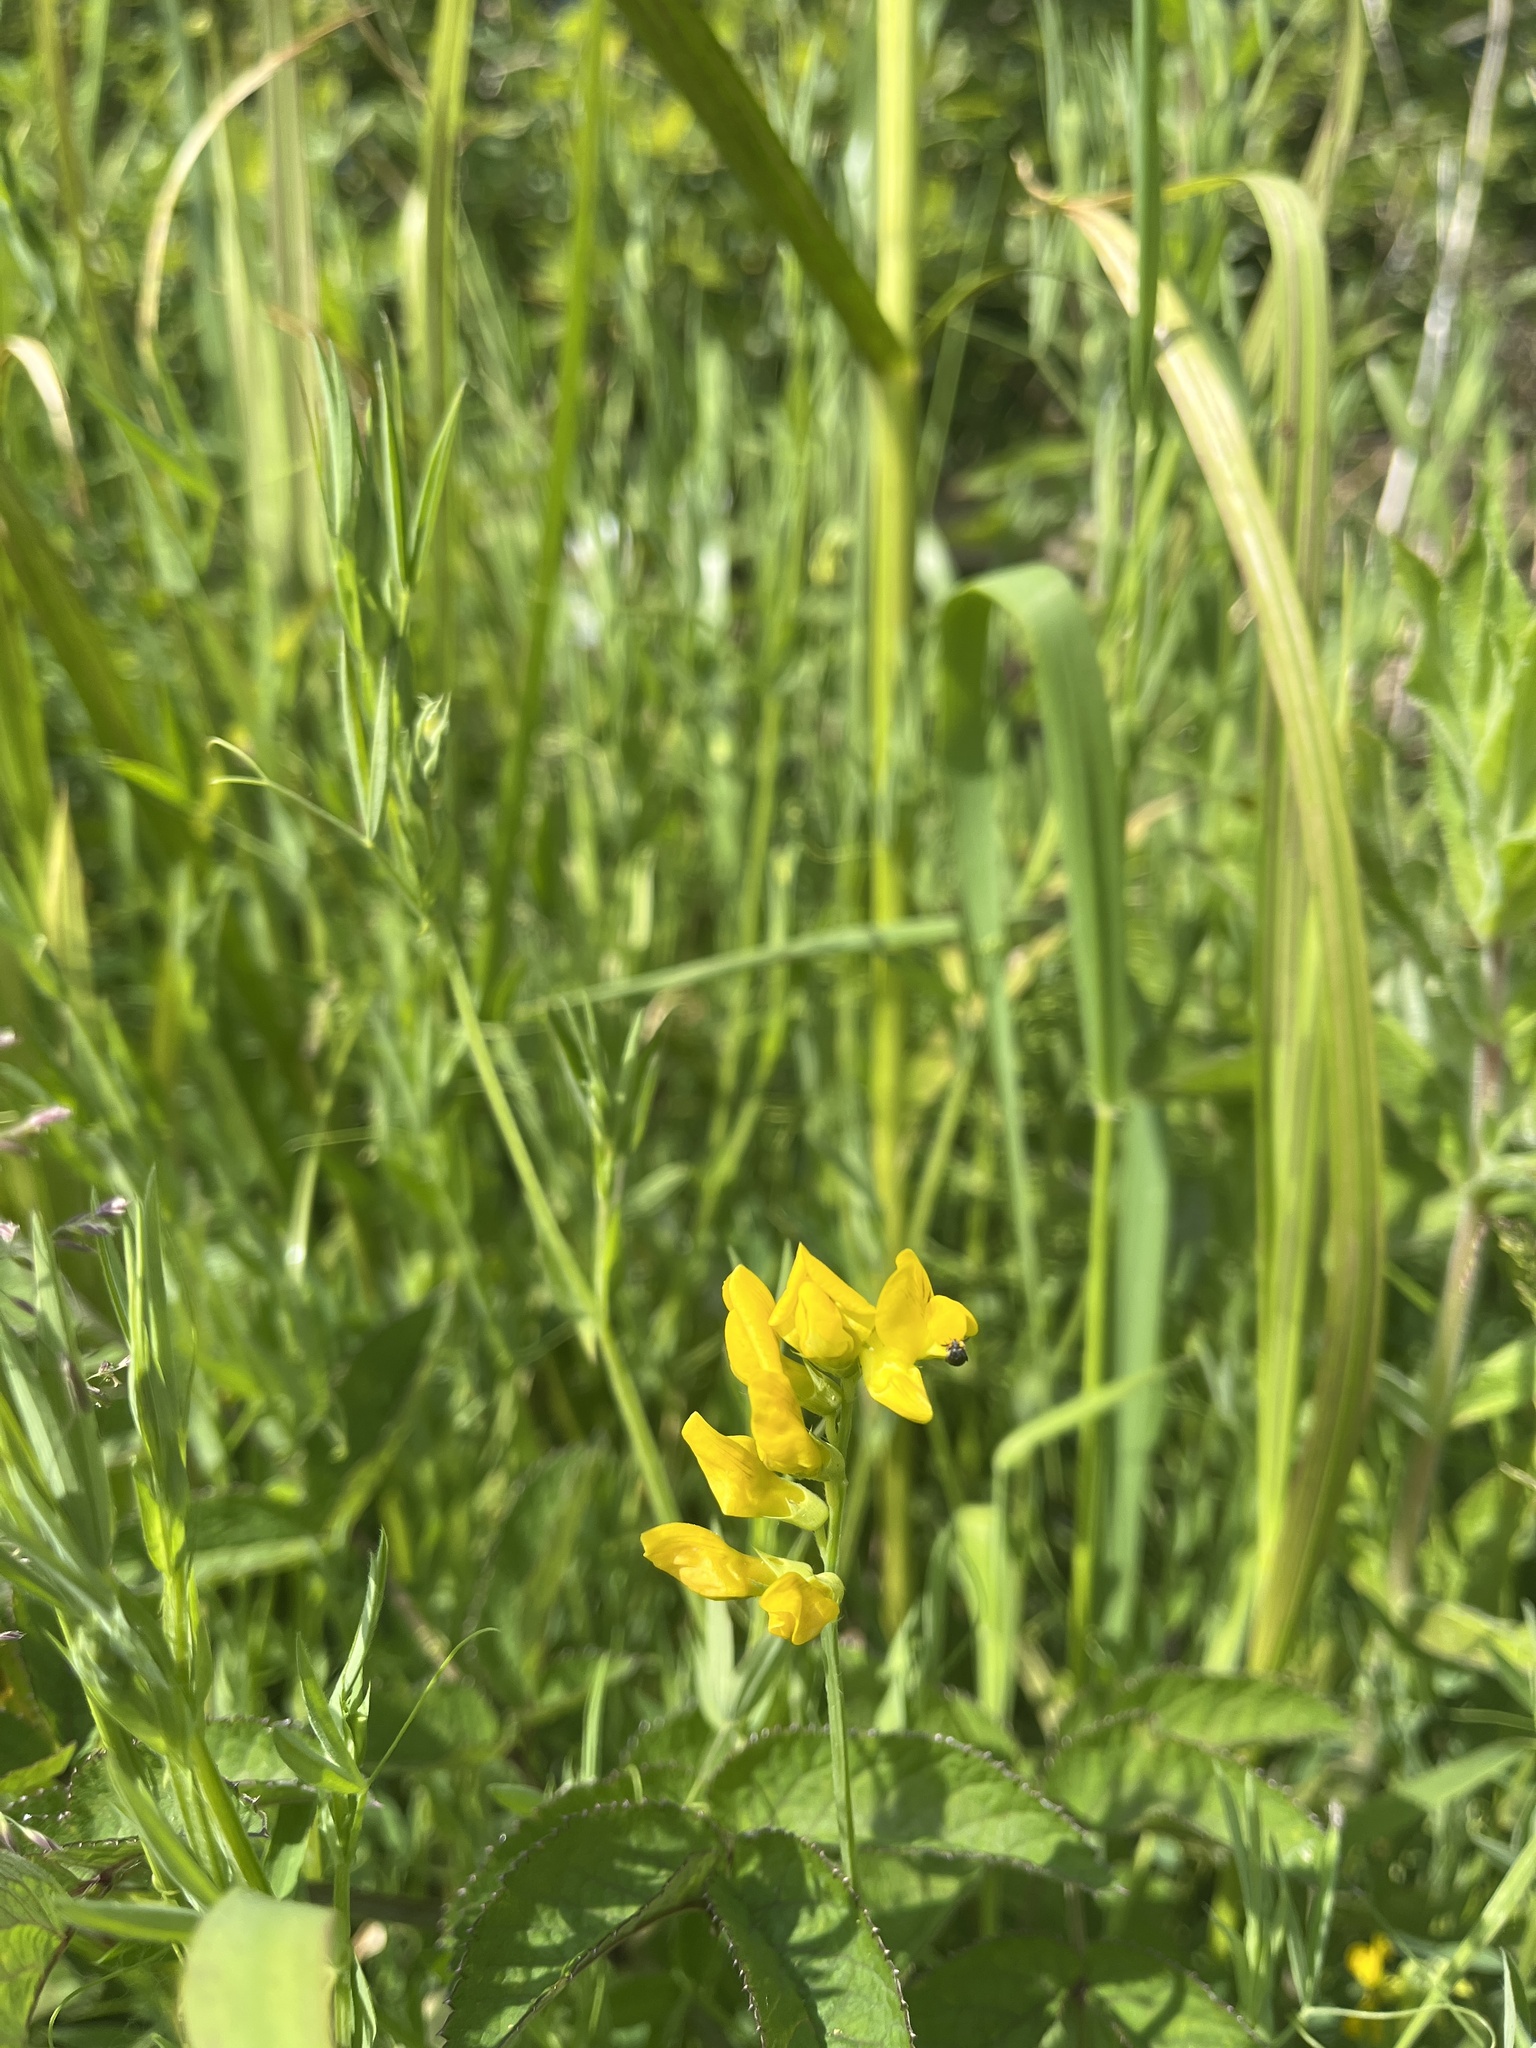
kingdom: Plantae
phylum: Tracheophyta
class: Magnoliopsida
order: Fabales
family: Fabaceae
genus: Lathyrus
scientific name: Lathyrus pratensis
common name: Meadow vetchling
